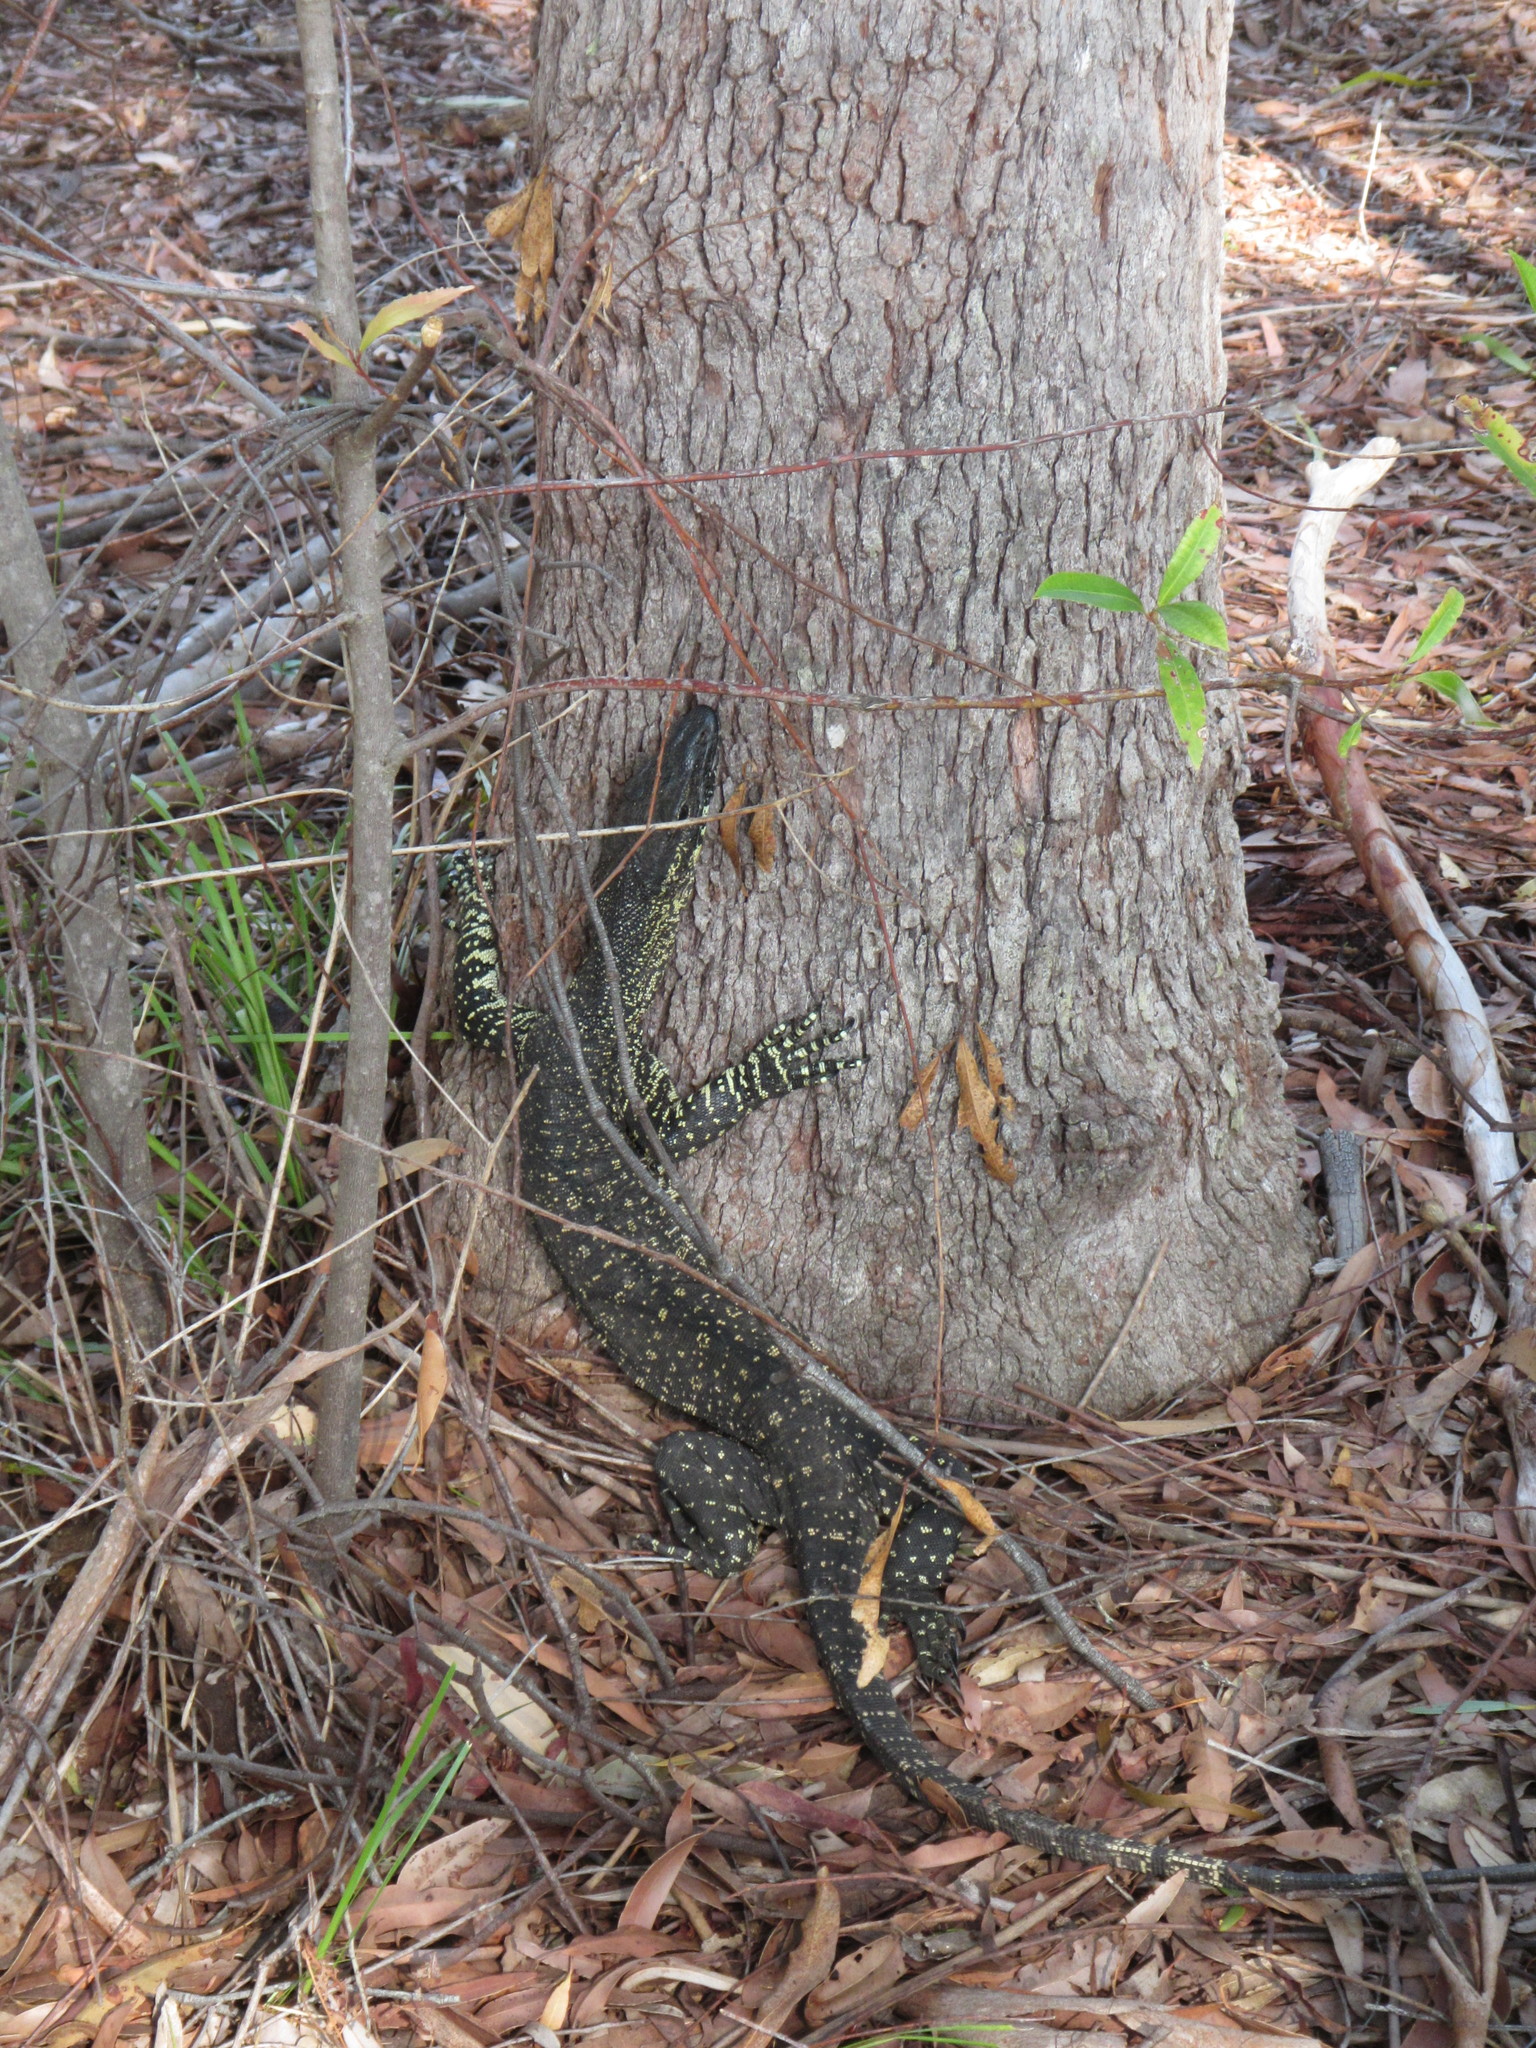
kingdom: Animalia
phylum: Chordata
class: Squamata
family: Varanidae
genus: Varanus
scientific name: Varanus varius
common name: Lace monitor
